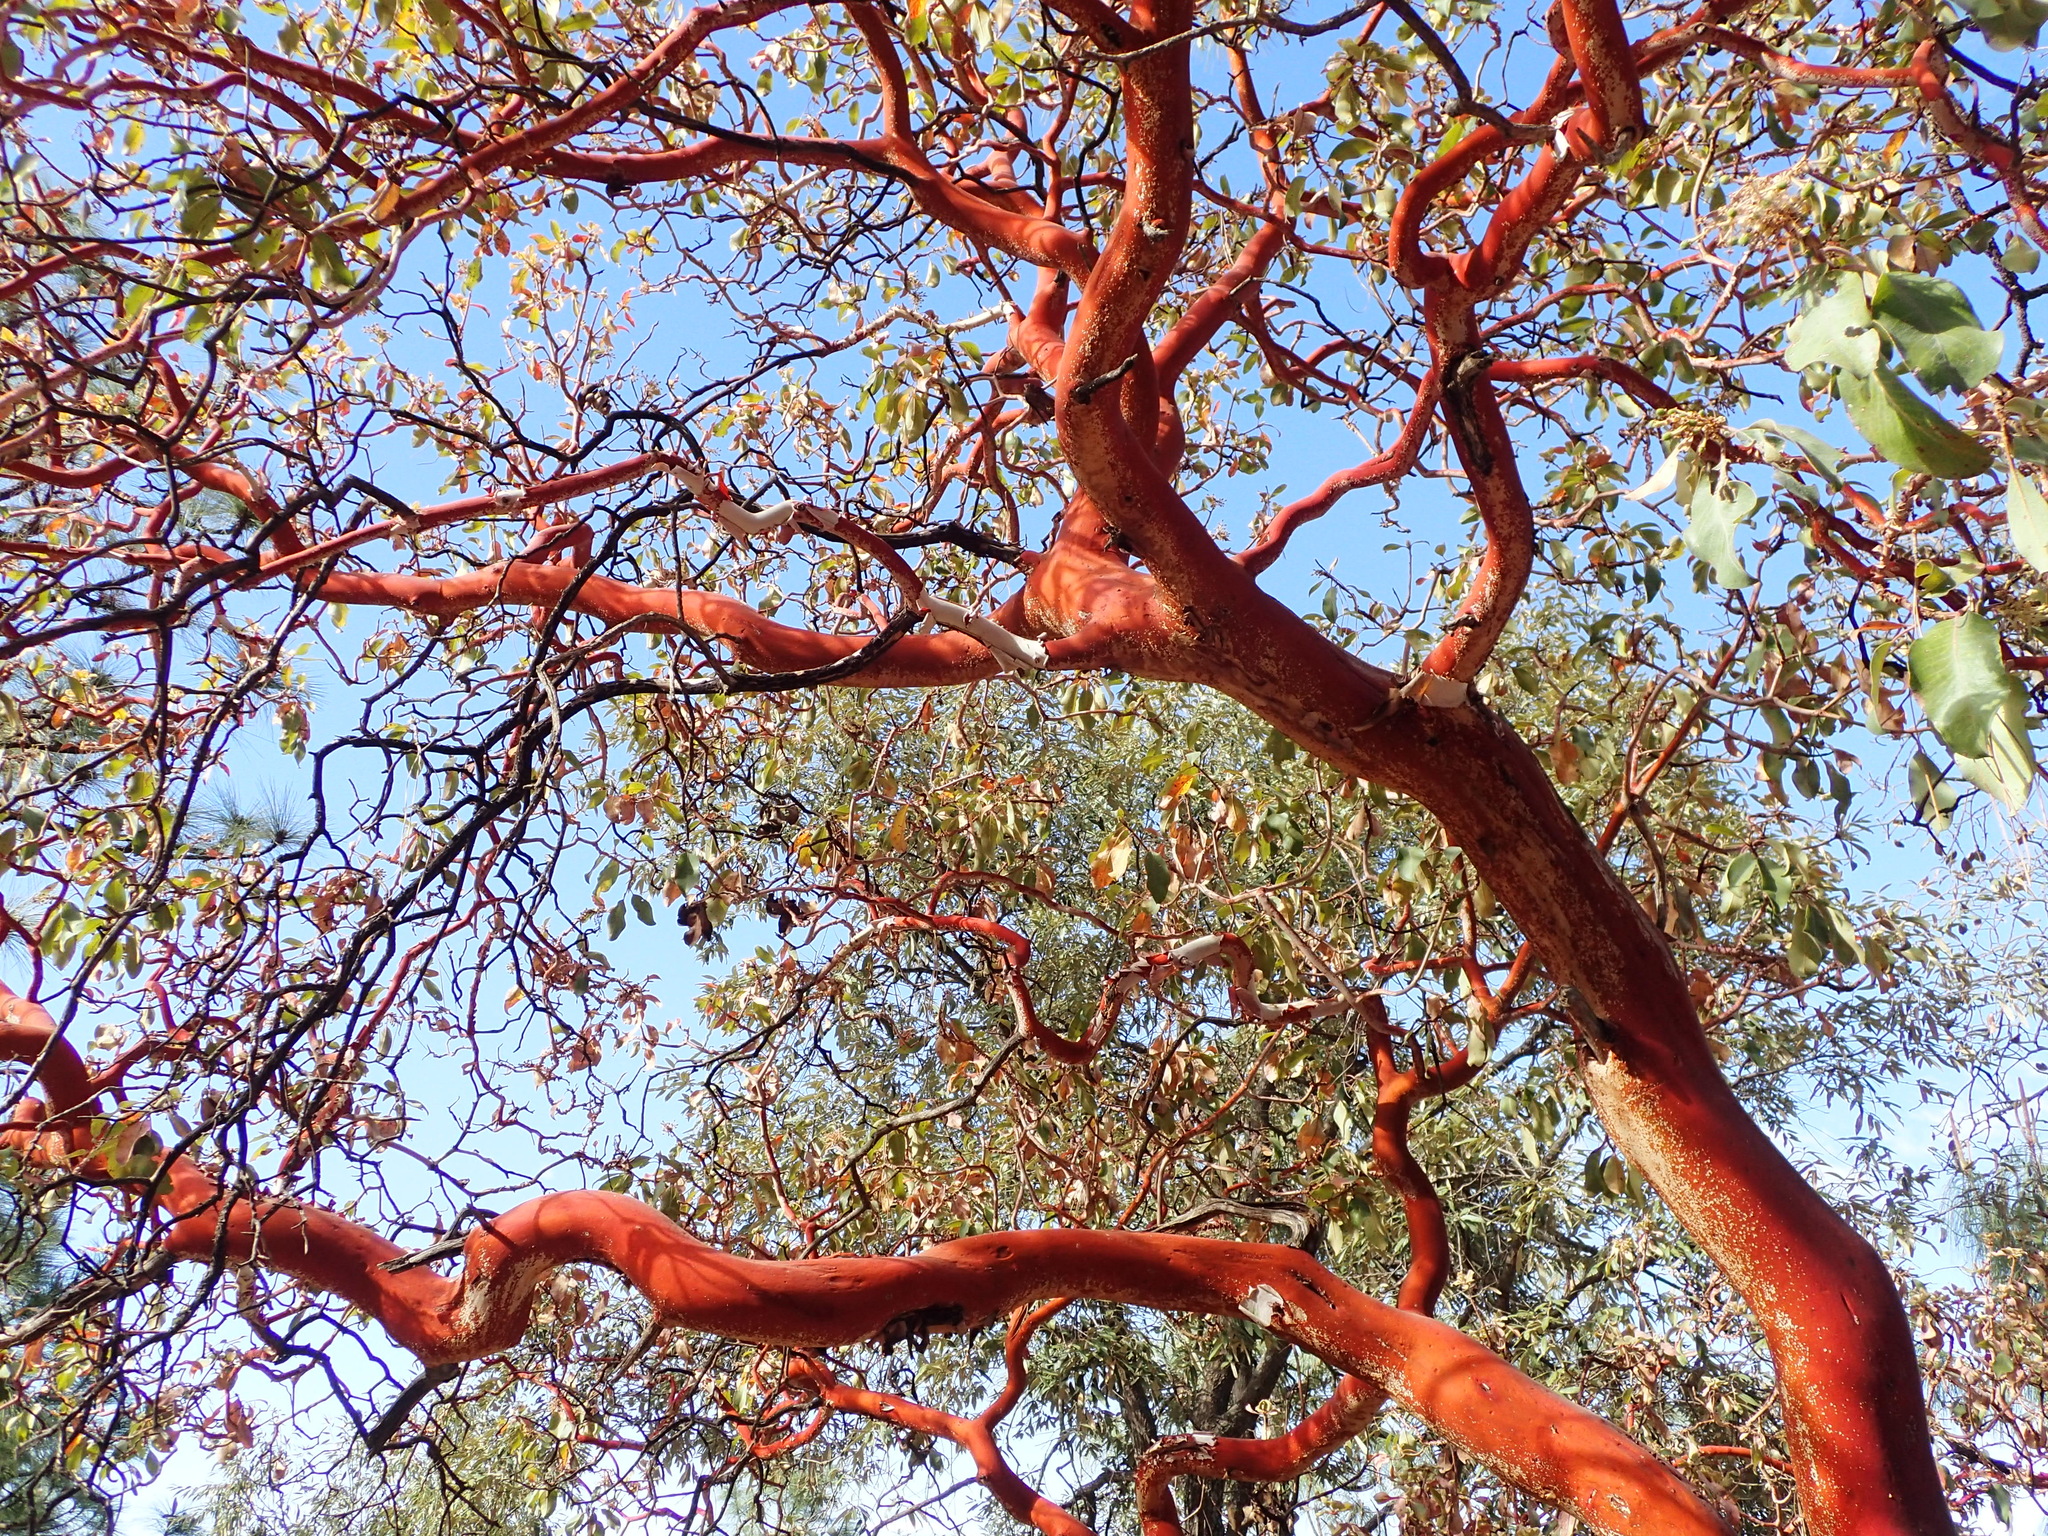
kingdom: Plantae
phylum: Tracheophyta
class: Magnoliopsida
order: Ericales
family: Ericaceae
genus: Arbutus
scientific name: Arbutus xalapensis
